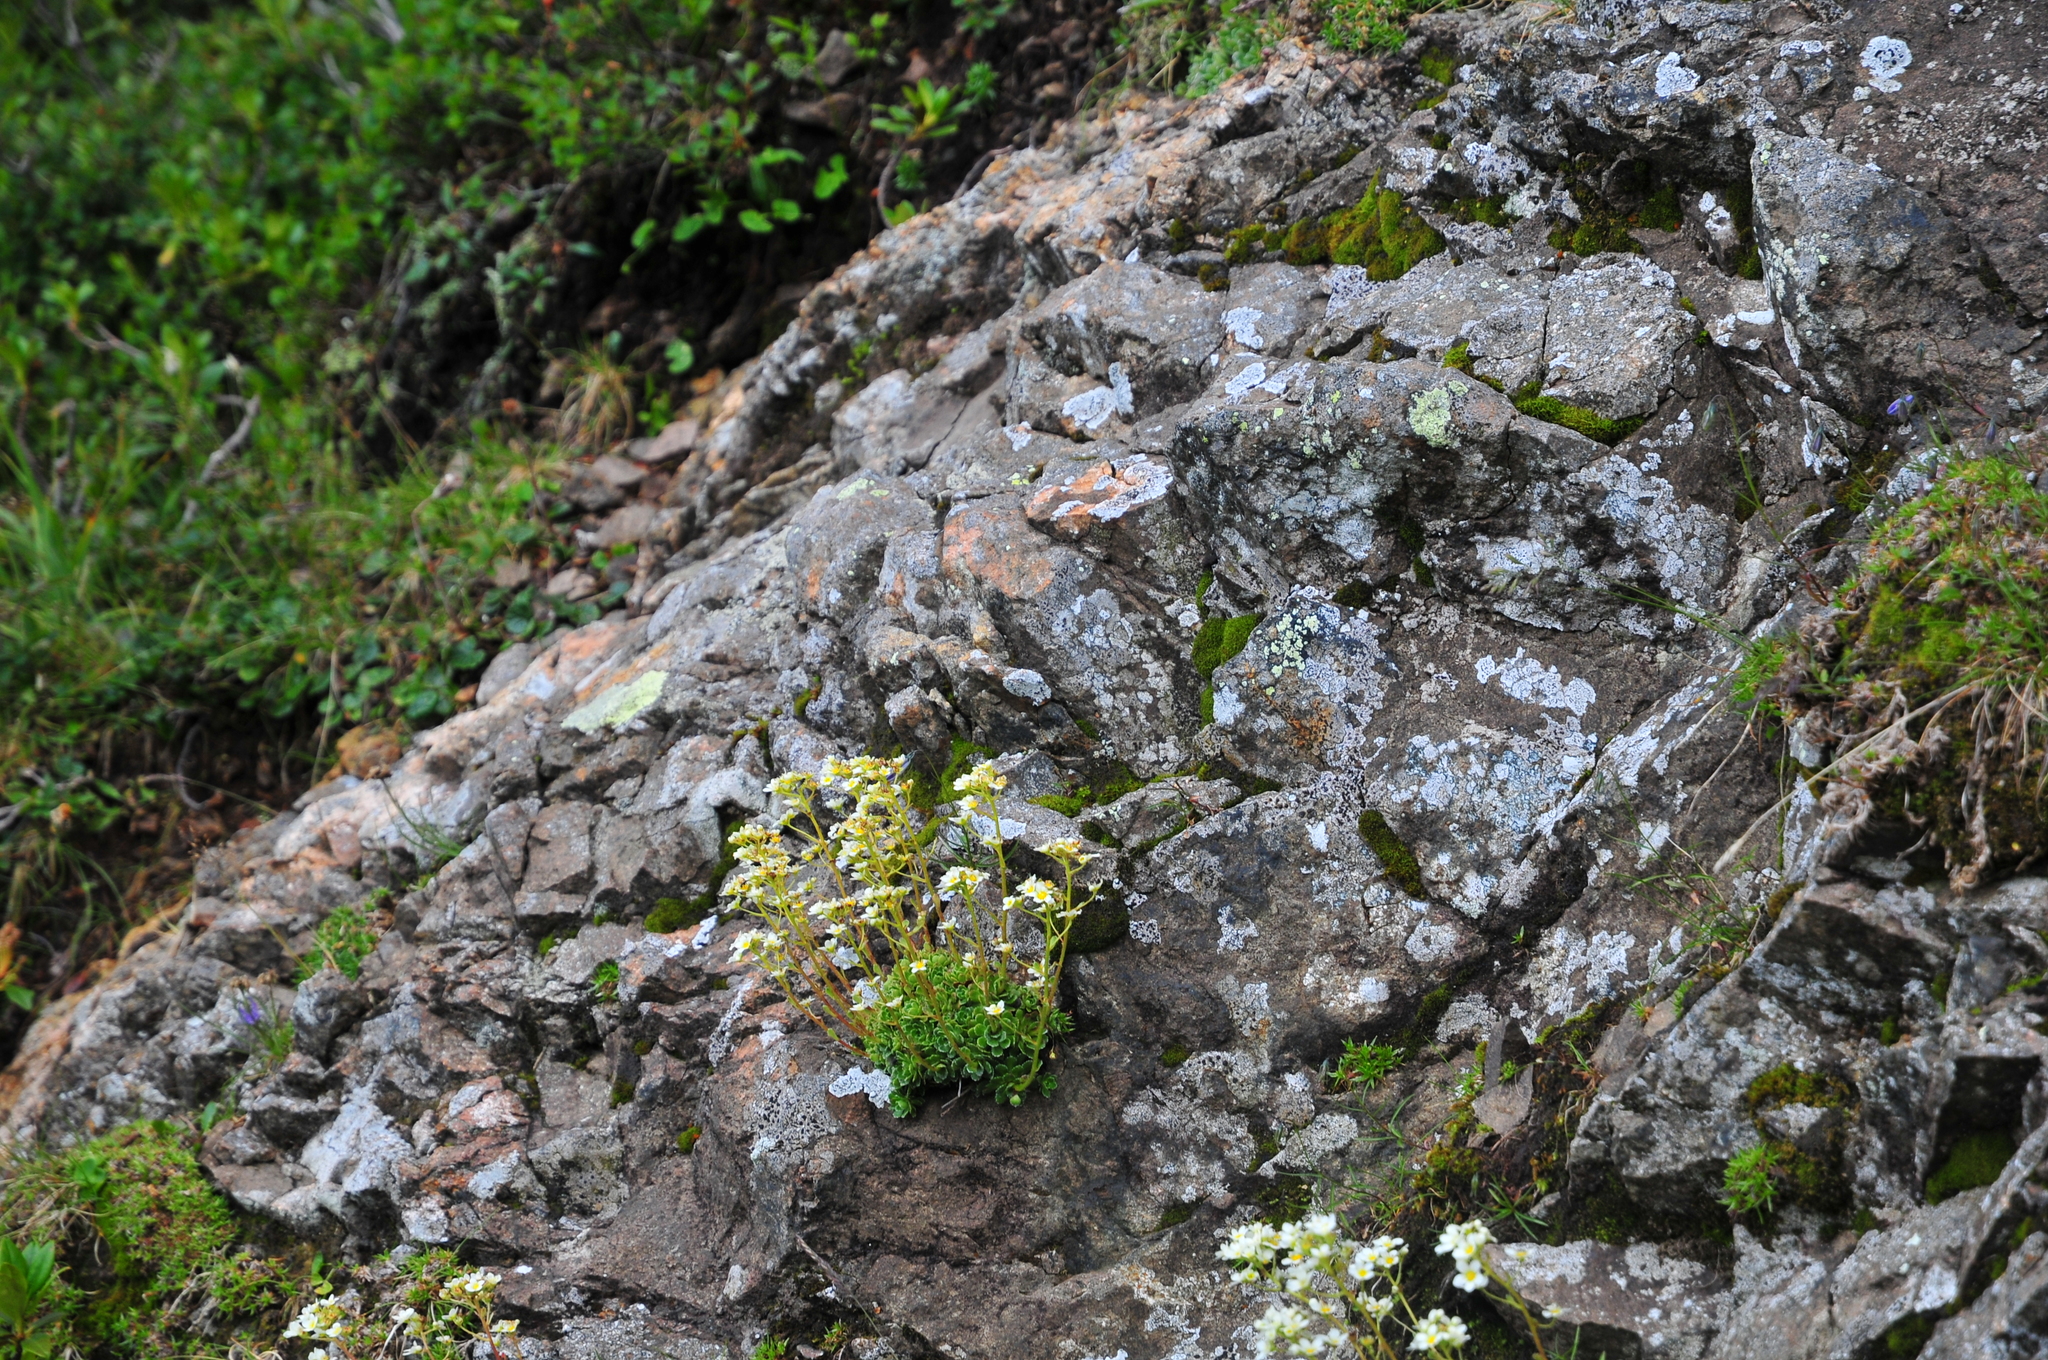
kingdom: Plantae
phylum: Tracheophyta
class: Magnoliopsida
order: Saxifragales
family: Saxifragaceae
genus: Saxifraga
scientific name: Saxifraga paniculata
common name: Livelong saxifrage
